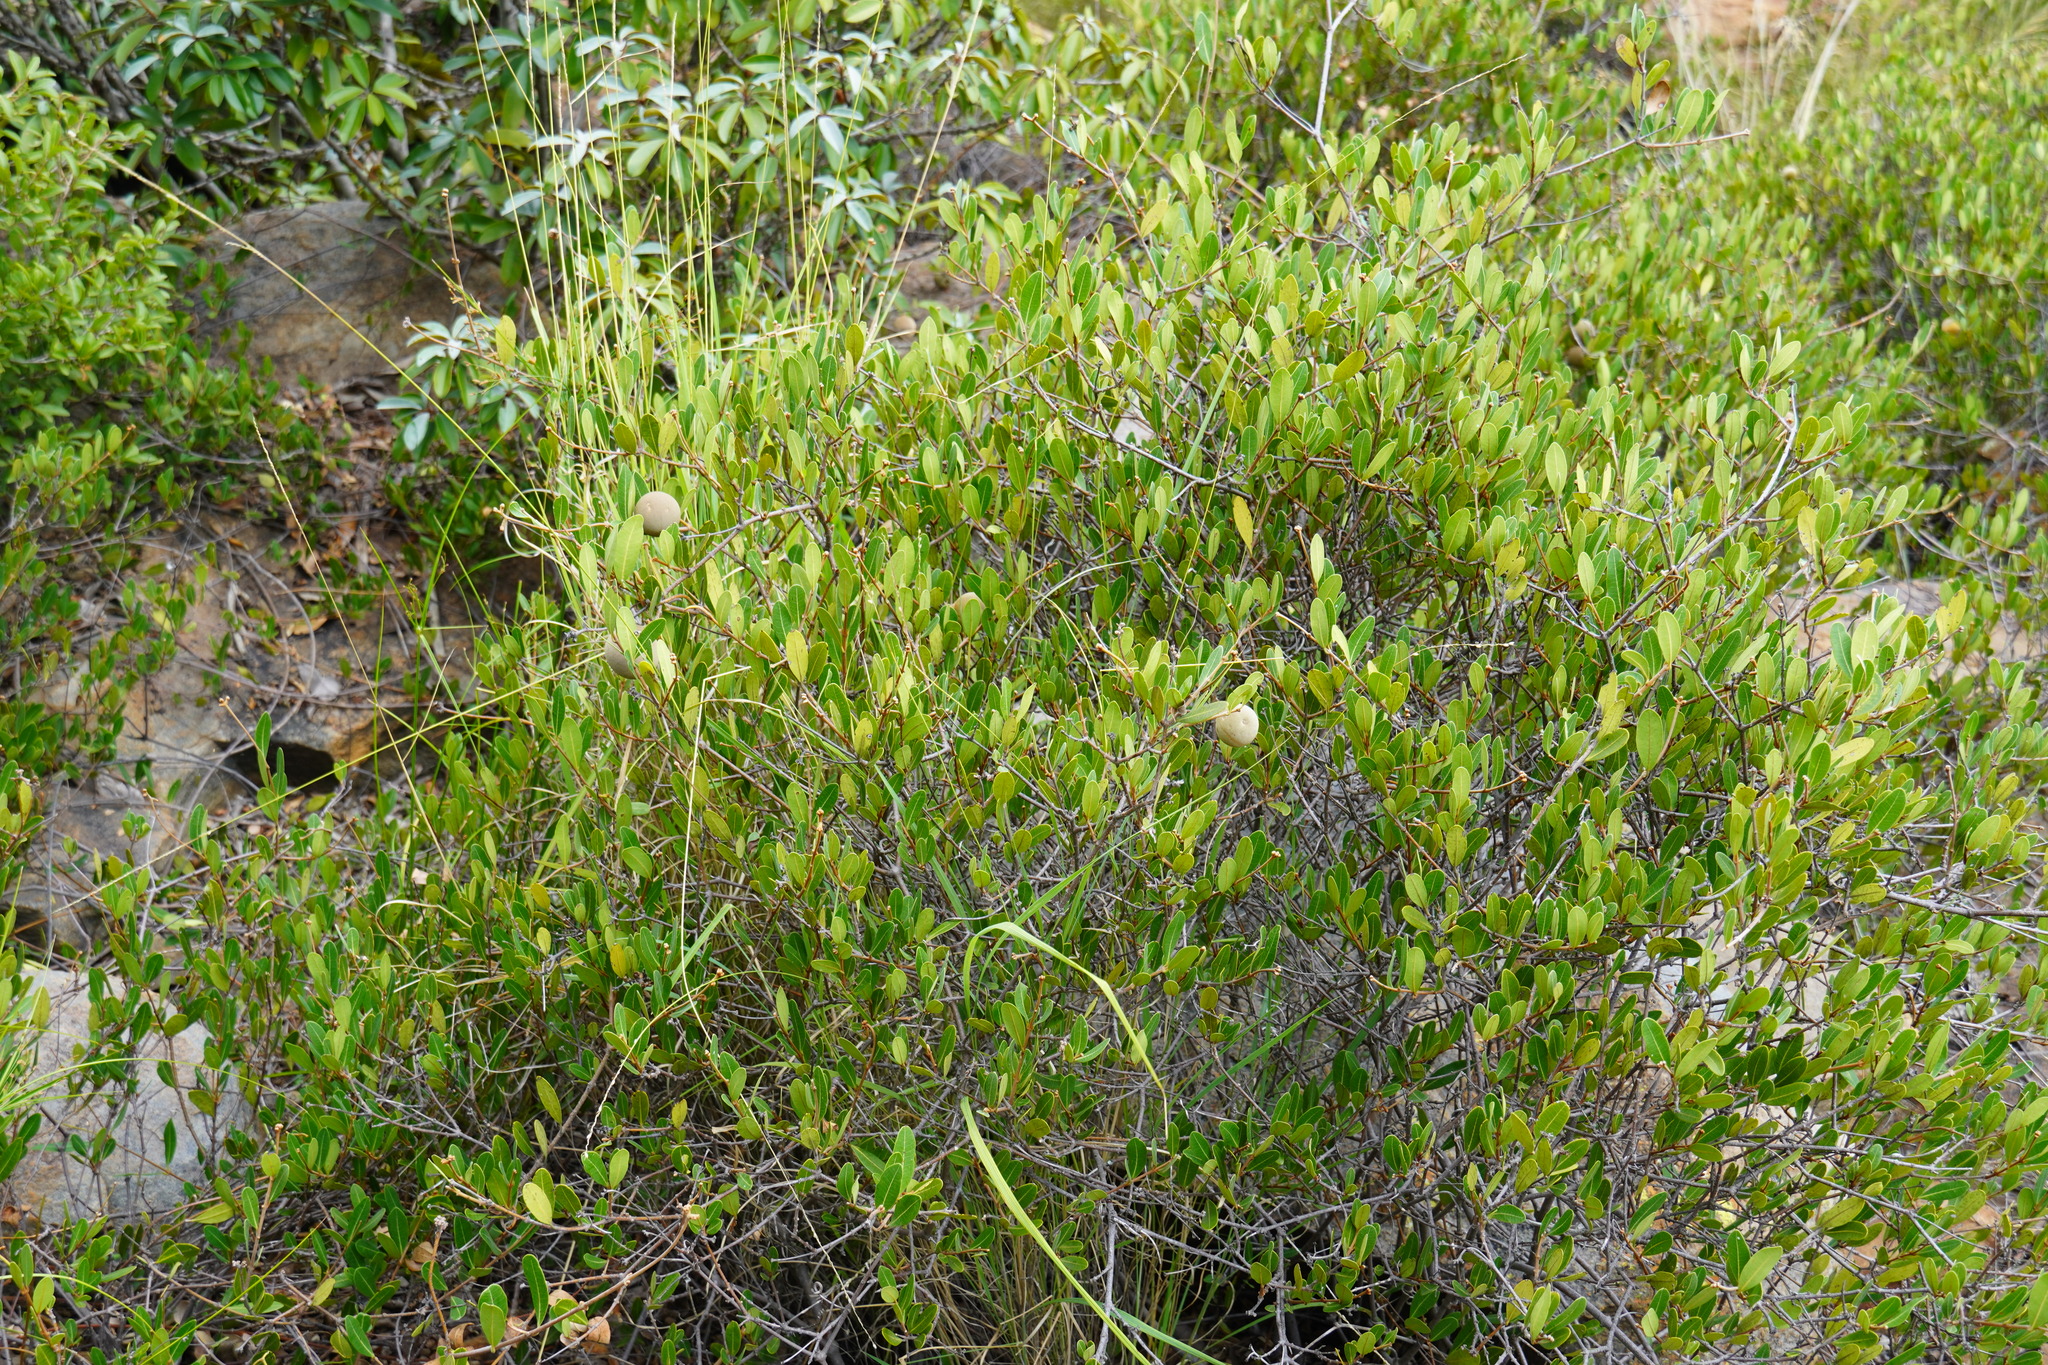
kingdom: Plantae
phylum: Tracheophyta
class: Magnoliopsida
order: Gentianales
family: Apocynaceae
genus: Ancylobothrys
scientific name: Ancylobothrys capensis
